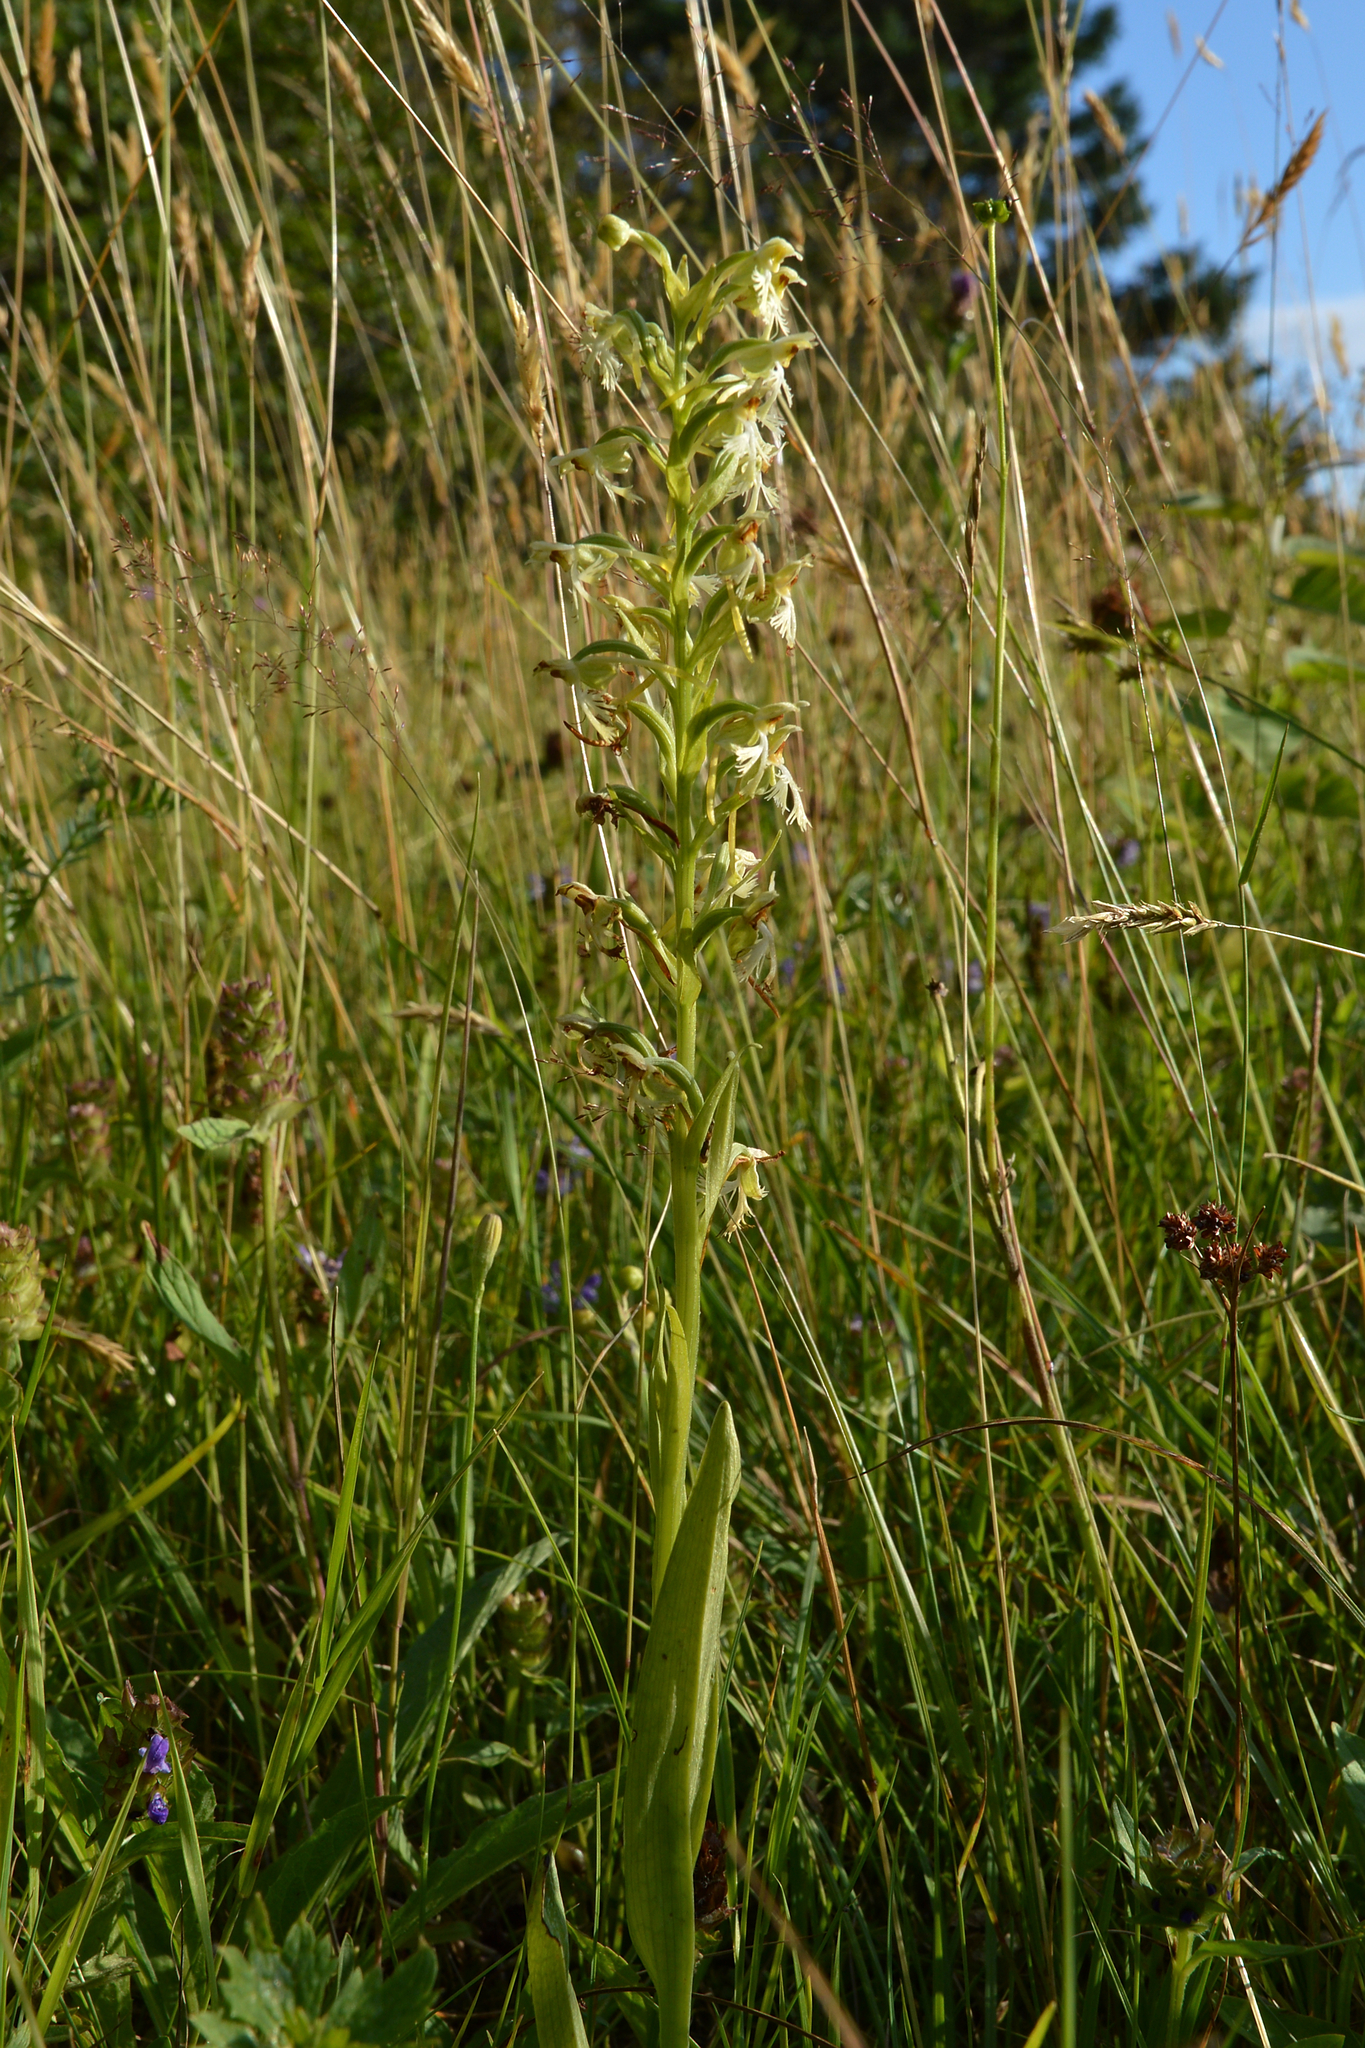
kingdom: Plantae
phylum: Tracheophyta
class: Liliopsida
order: Asparagales
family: Orchidaceae
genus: Platanthera
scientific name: Platanthera lacera
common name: Green fringed orchid
